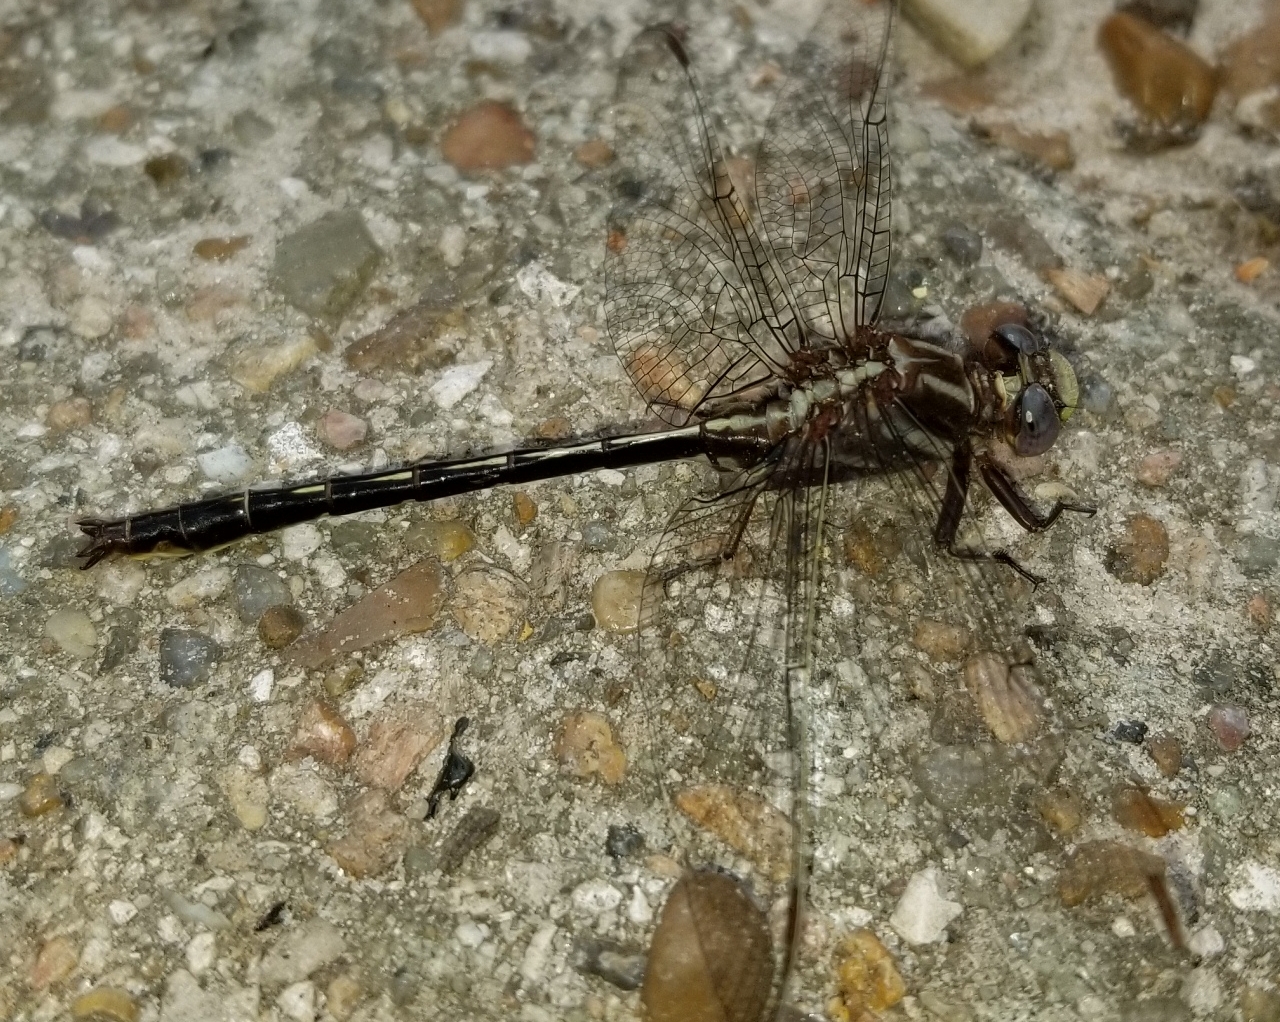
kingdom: Animalia
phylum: Arthropoda
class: Insecta
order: Odonata
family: Gomphidae
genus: Phanogomphus
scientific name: Phanogomphus lividus
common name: Ashy clubtail
